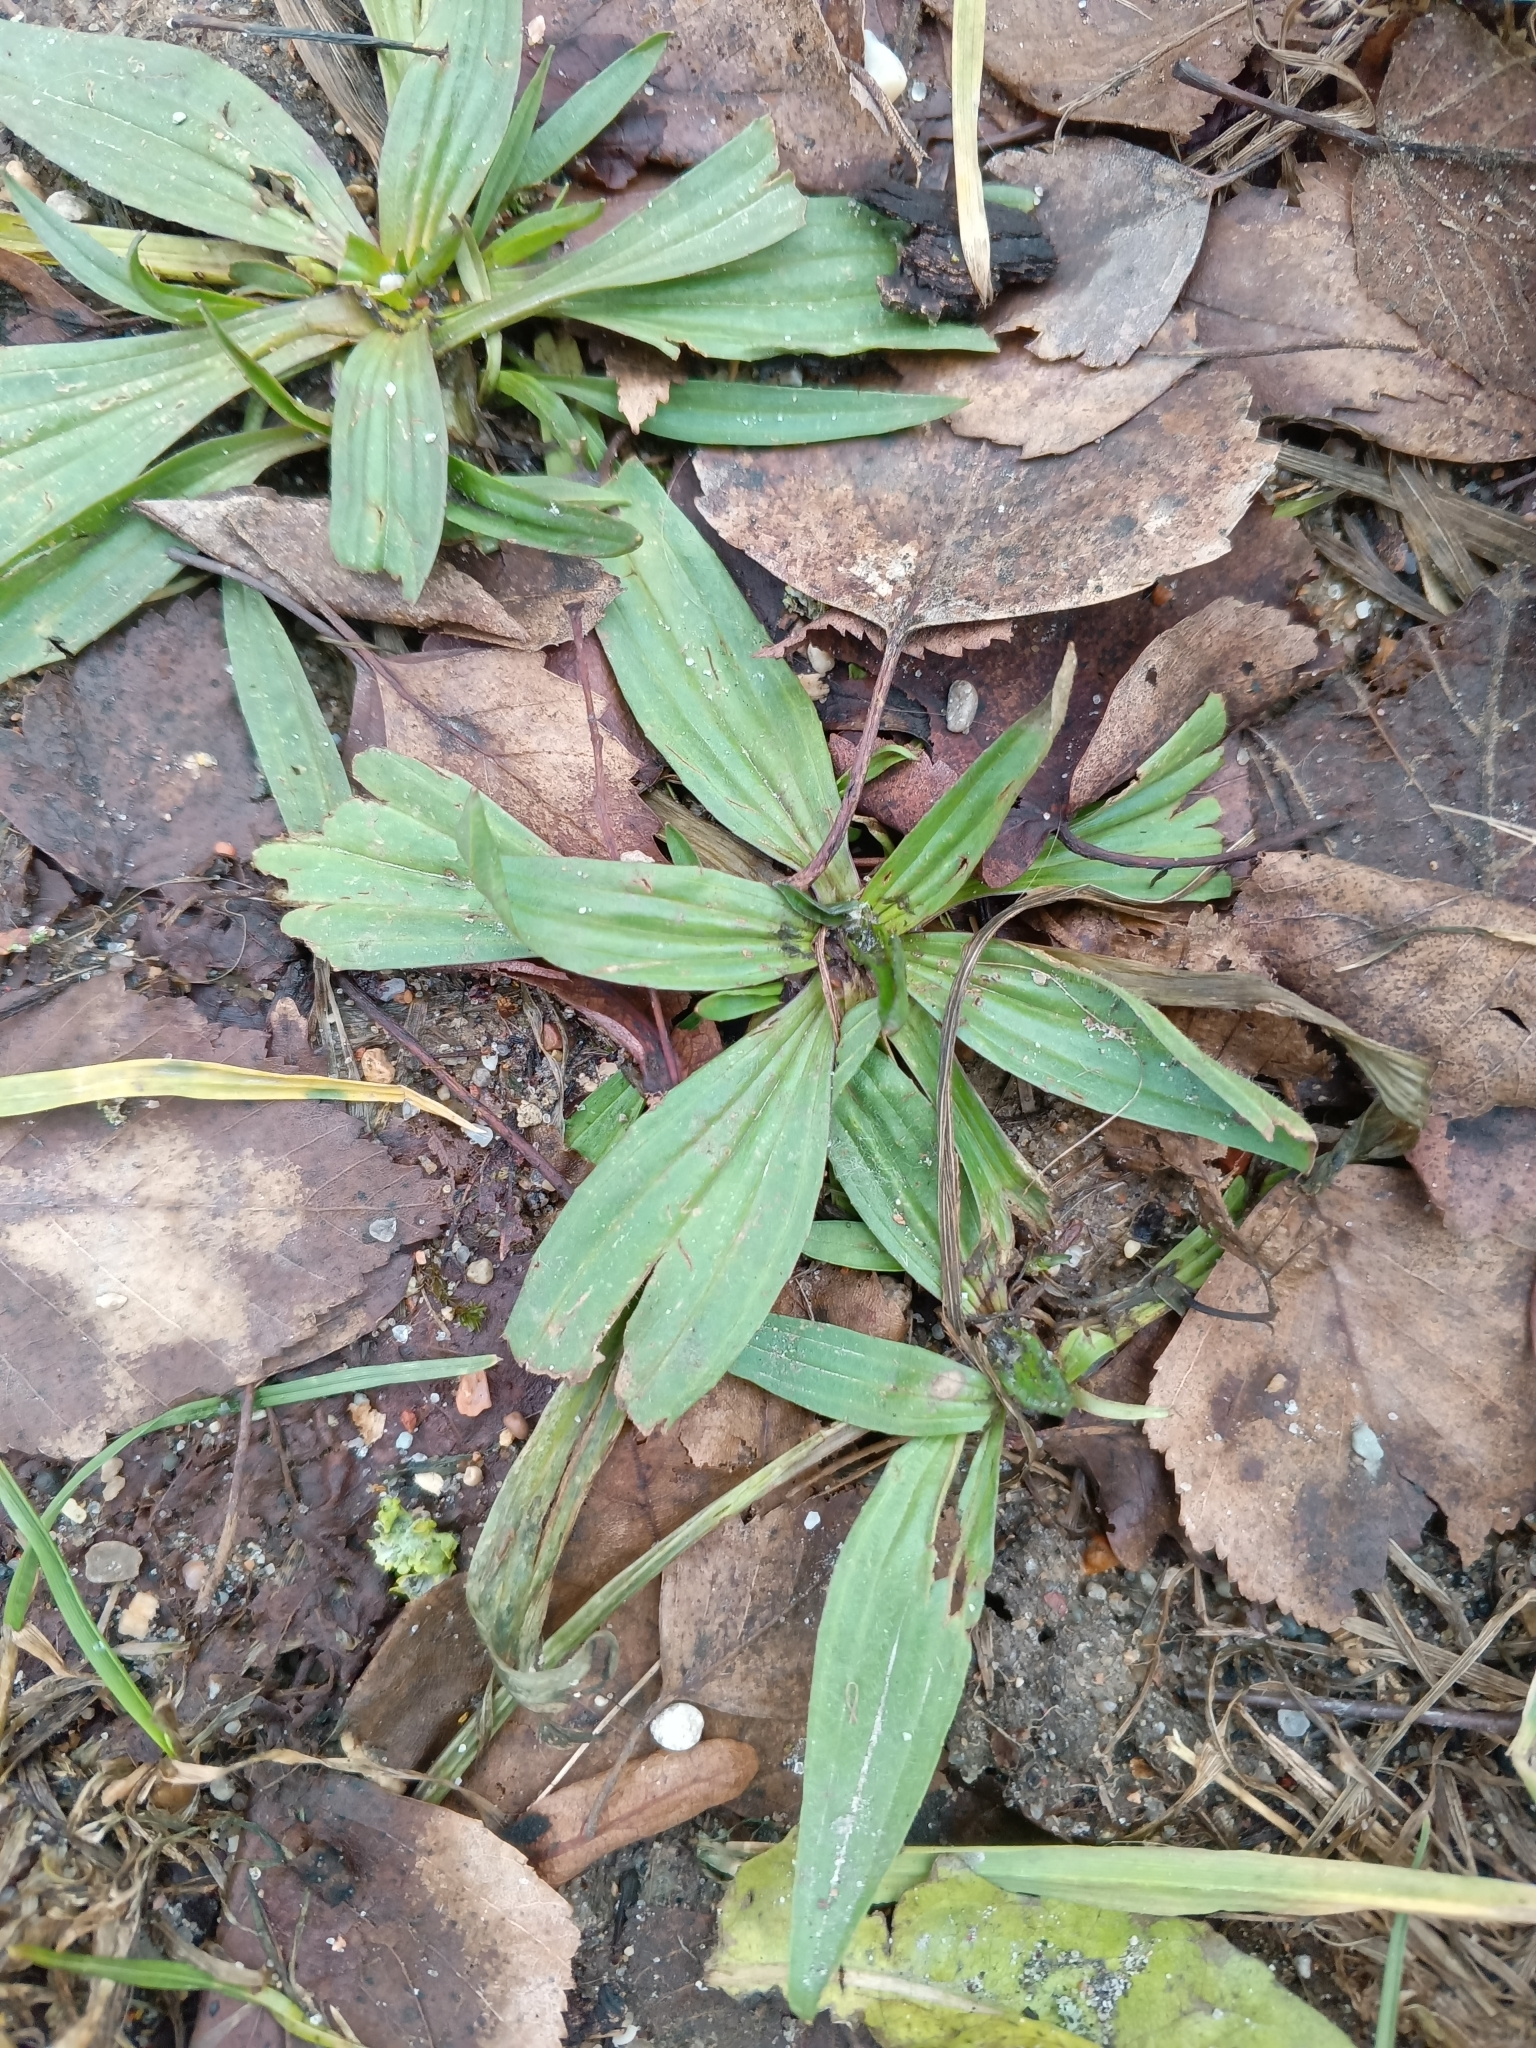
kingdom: Plantae
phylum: Tracheophyta
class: Magnoliopsida
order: Lamiales
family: Plantaginaceae
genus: Plantago
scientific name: Plantago lanceolata
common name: Ribwort plantain
